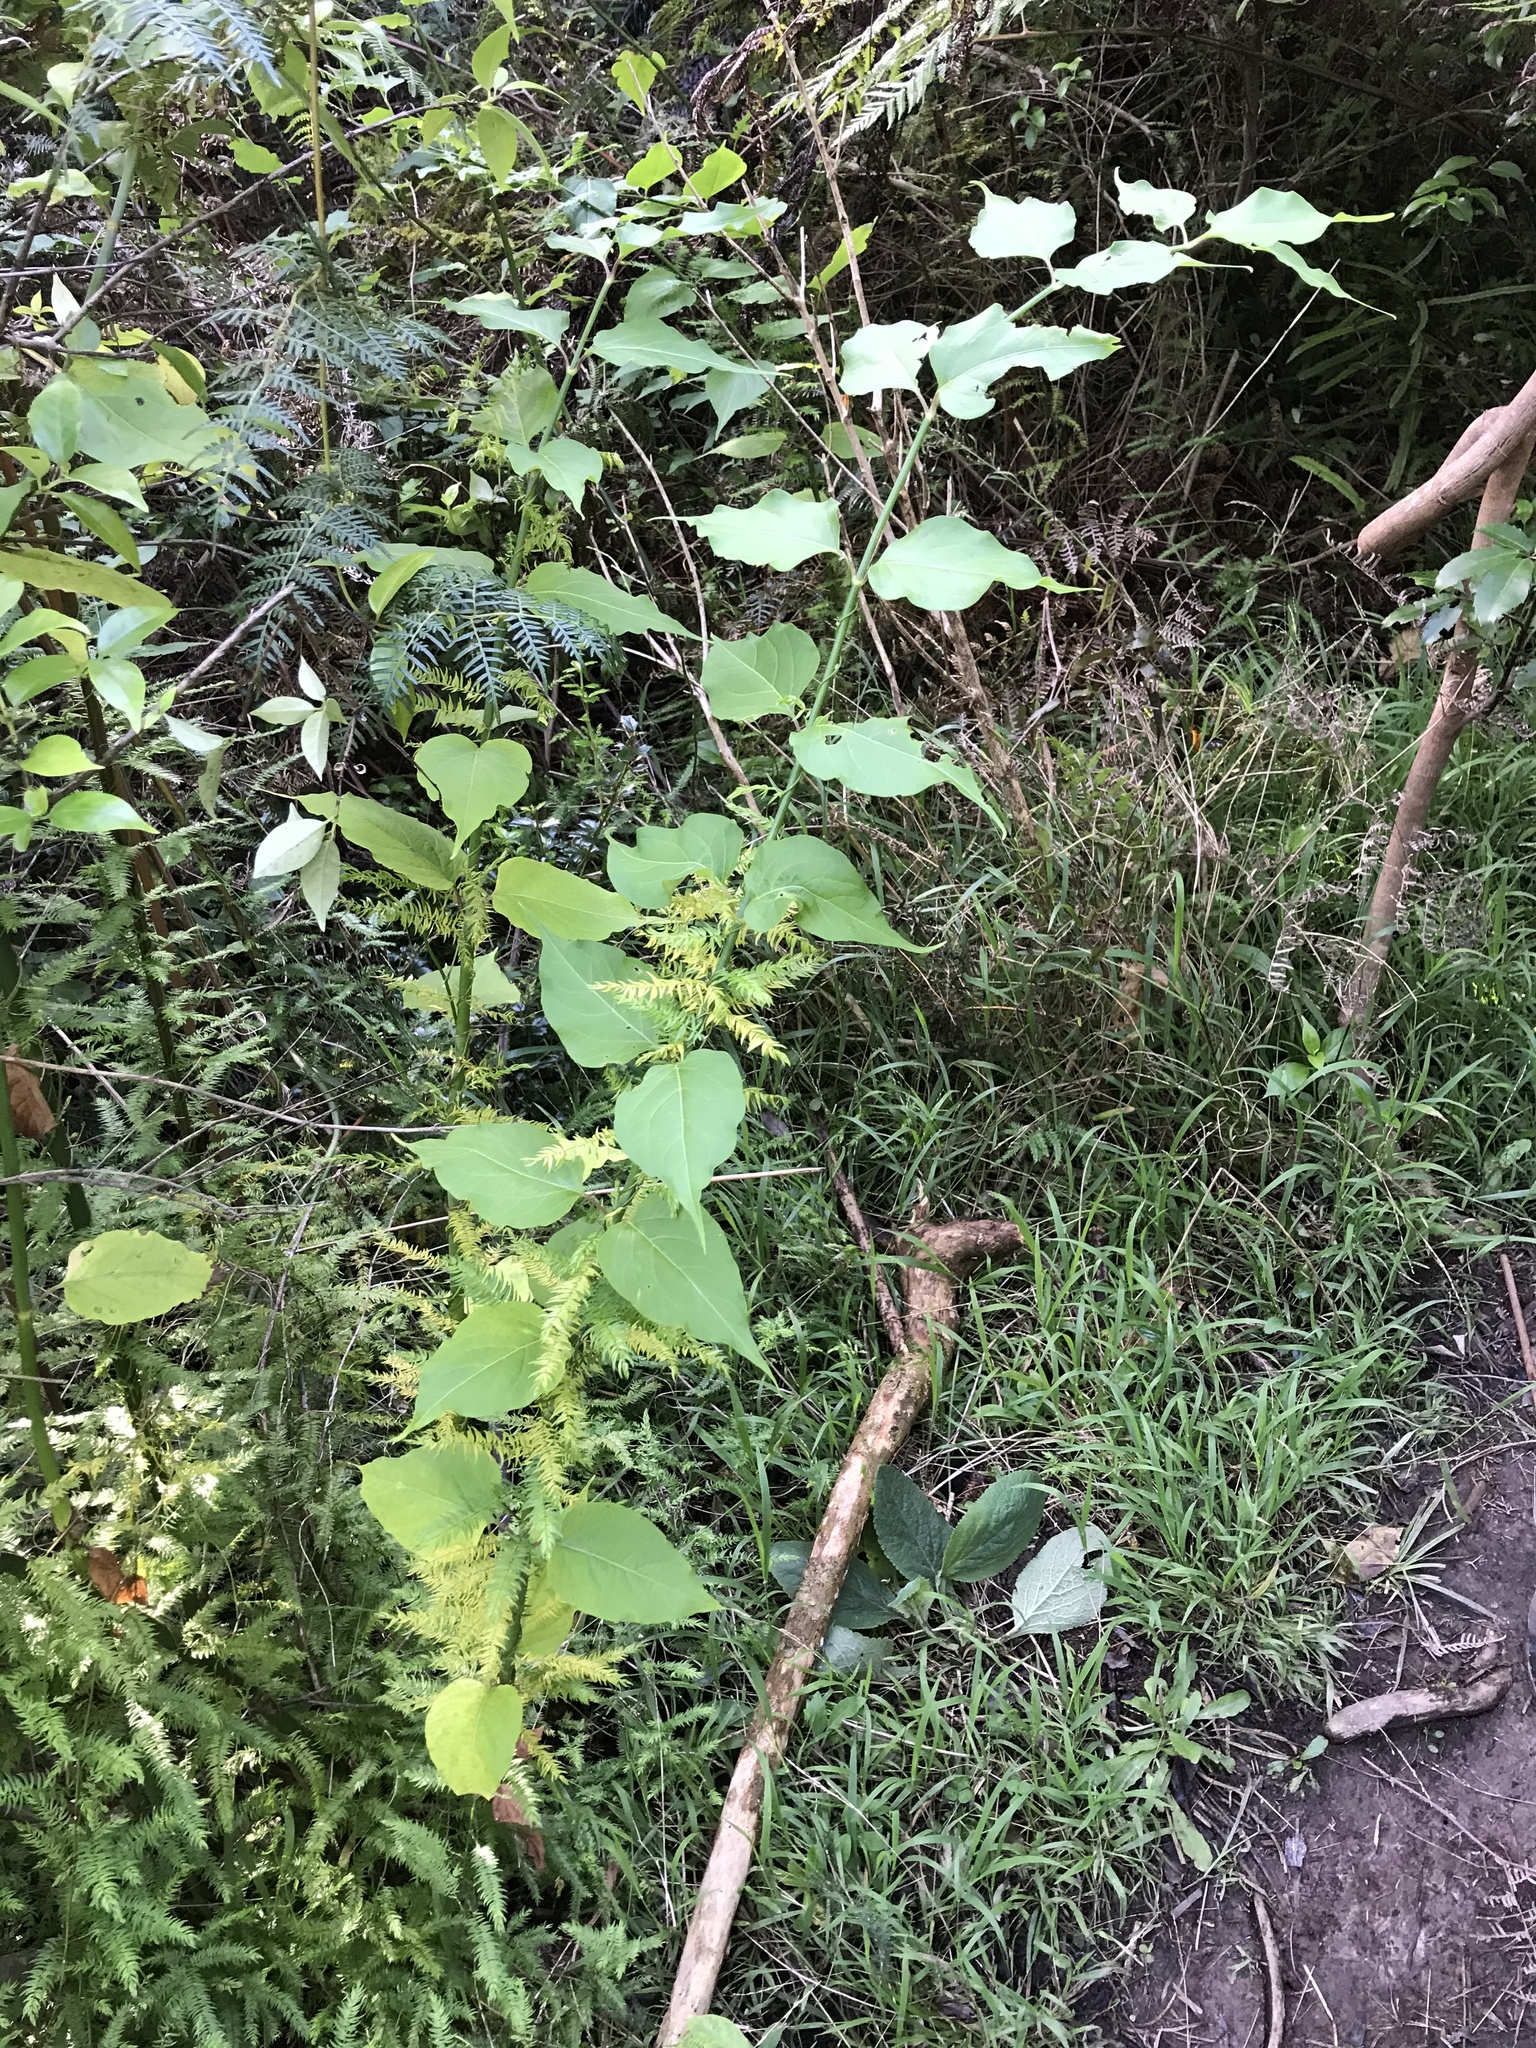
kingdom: Plantae
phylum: Tracheophyta
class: Magnoliopsida
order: Dipsacales
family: Caprifoliaceae
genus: Leycesteria
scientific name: Leycesteria formosa
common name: Himalayan honeysuckle
